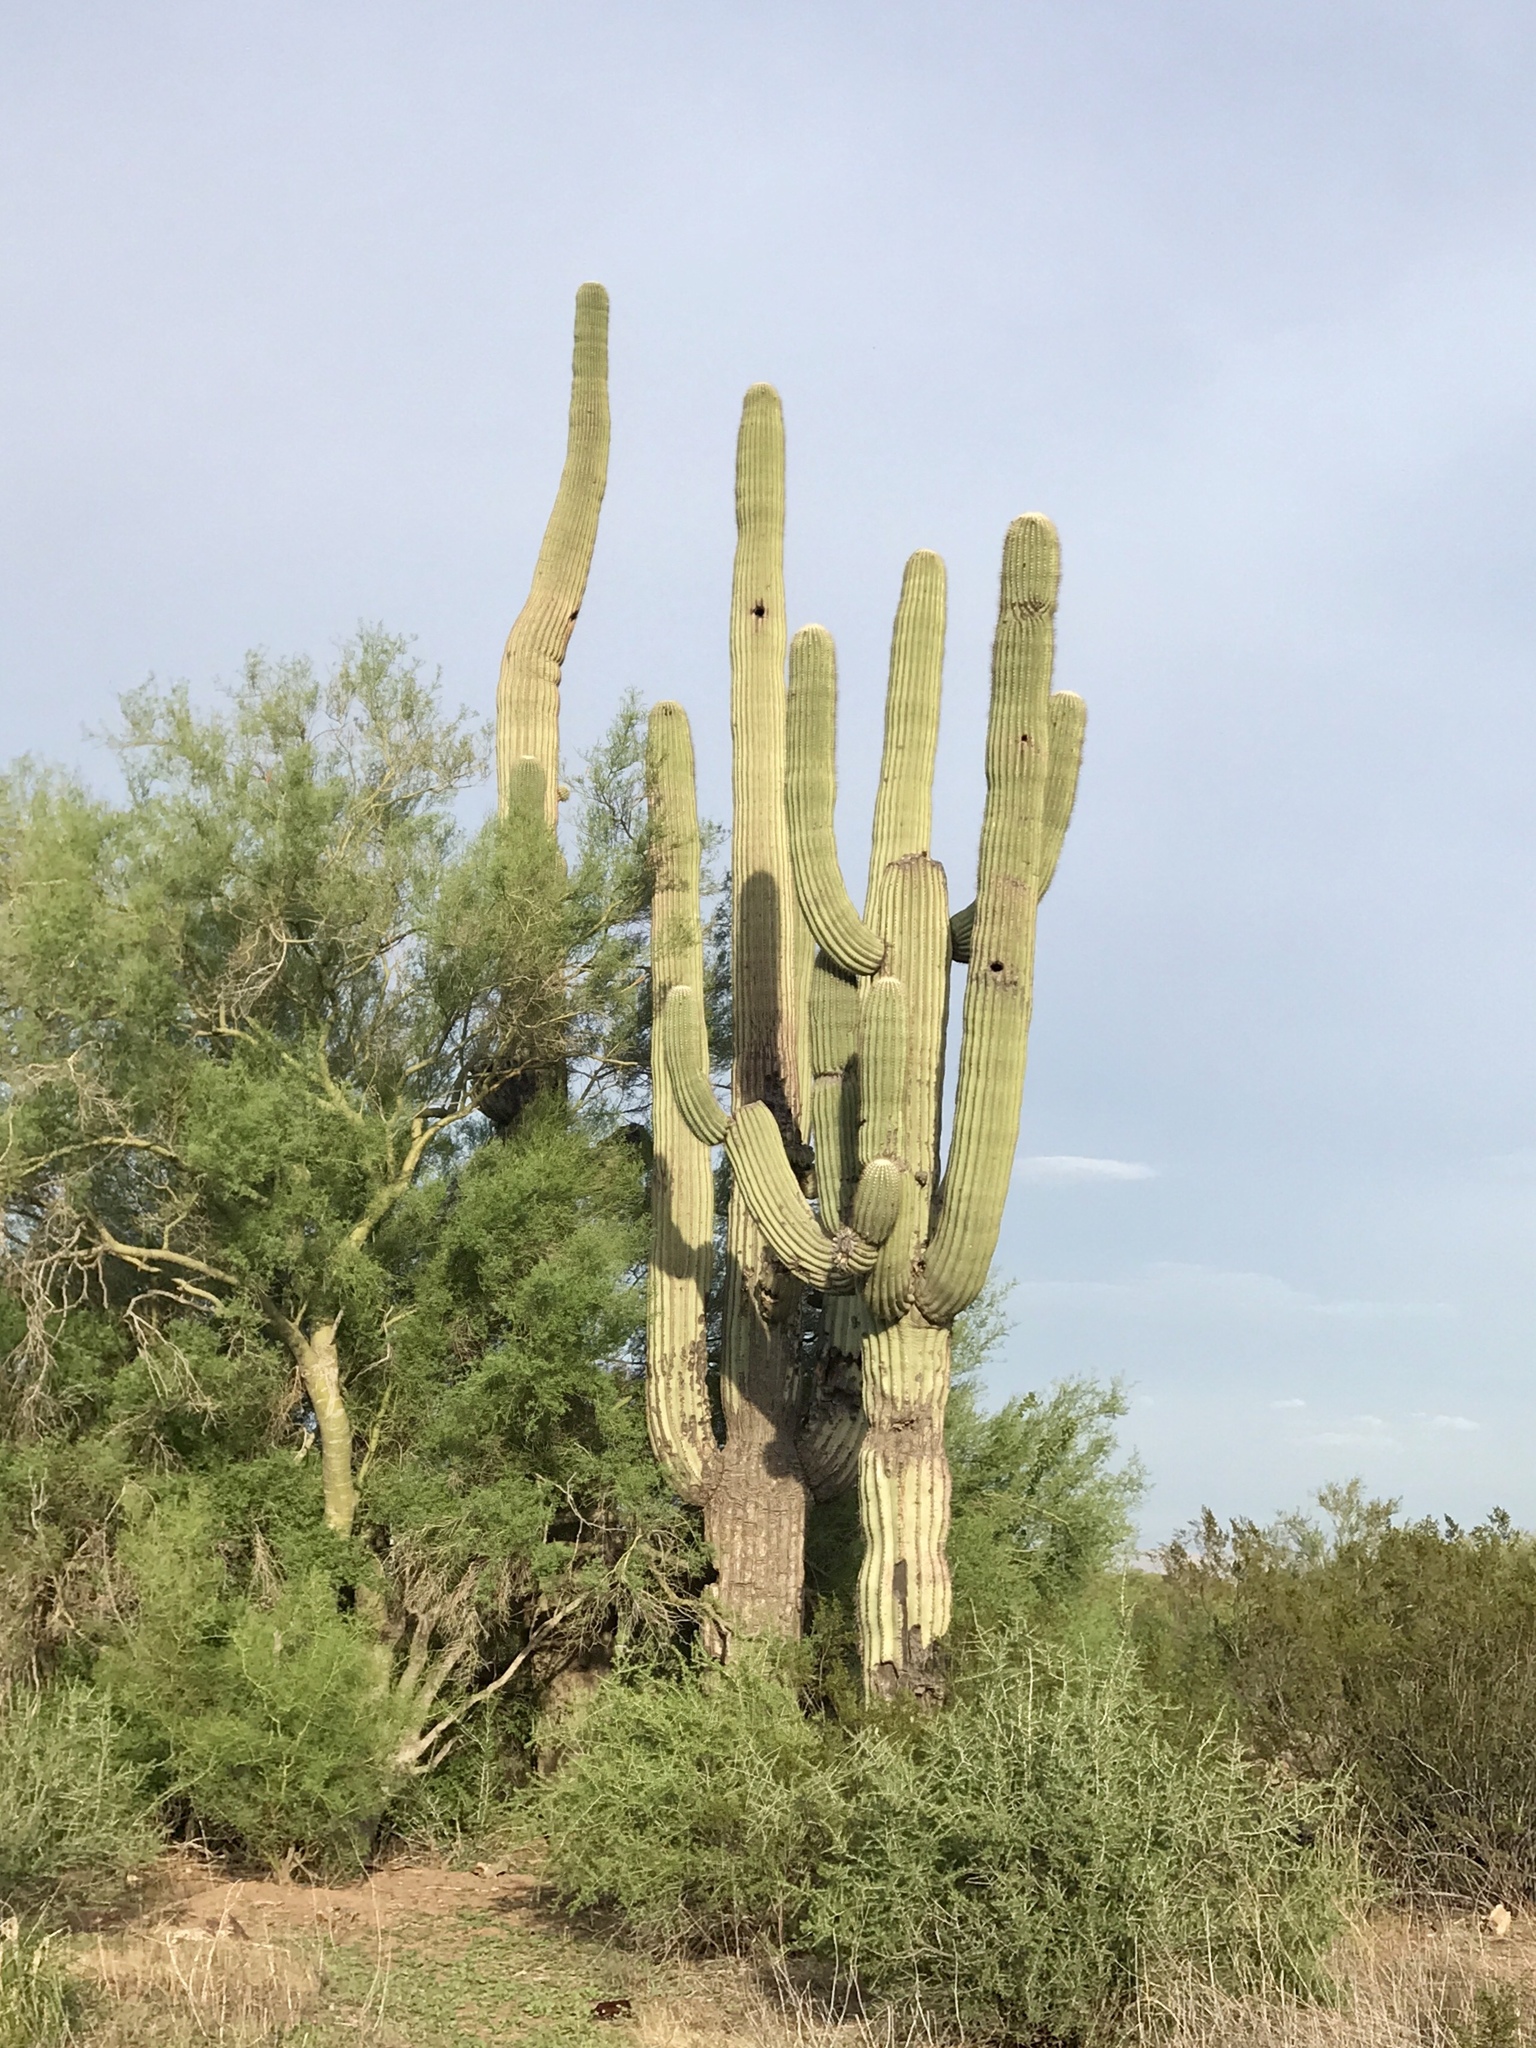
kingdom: Plantae
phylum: Tracheophyta
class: Magnoliopsida
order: Caryophyllales
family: Cactaceae
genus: Carnegiea
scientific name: Carnegiea gigantea
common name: Saguaro
